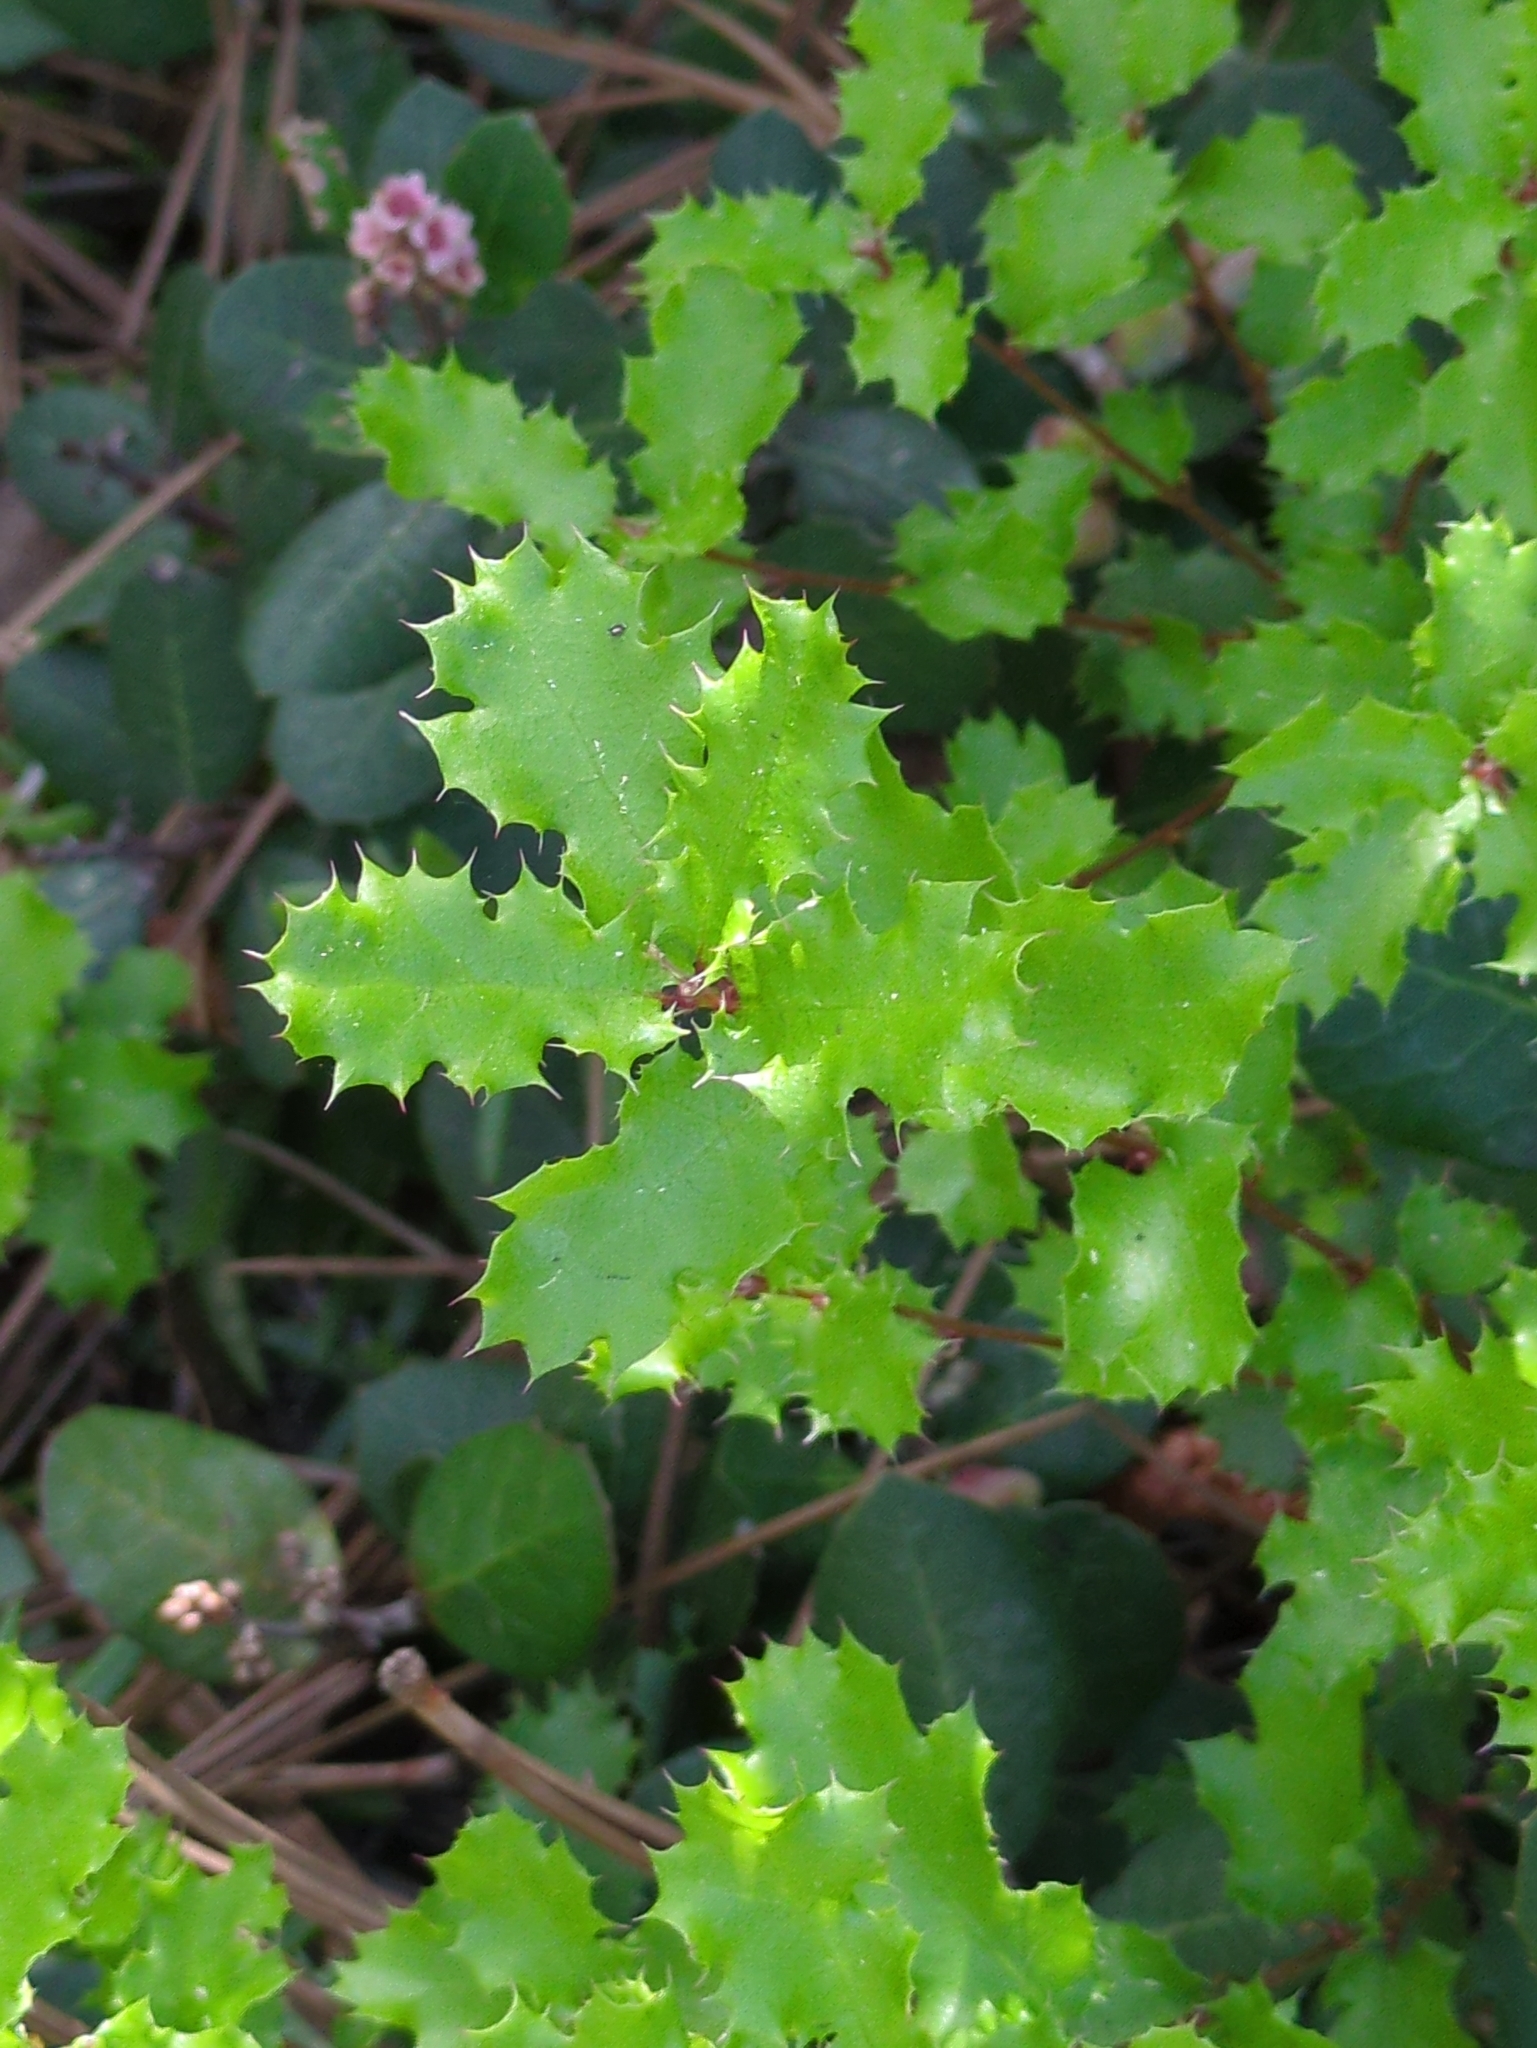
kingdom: Plantae
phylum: Tracheophyta
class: Magnoliopsida
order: Fagales
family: Fagaceae
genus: Quercus
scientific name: Quercus dumosa
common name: Coastal sage scrub oak
